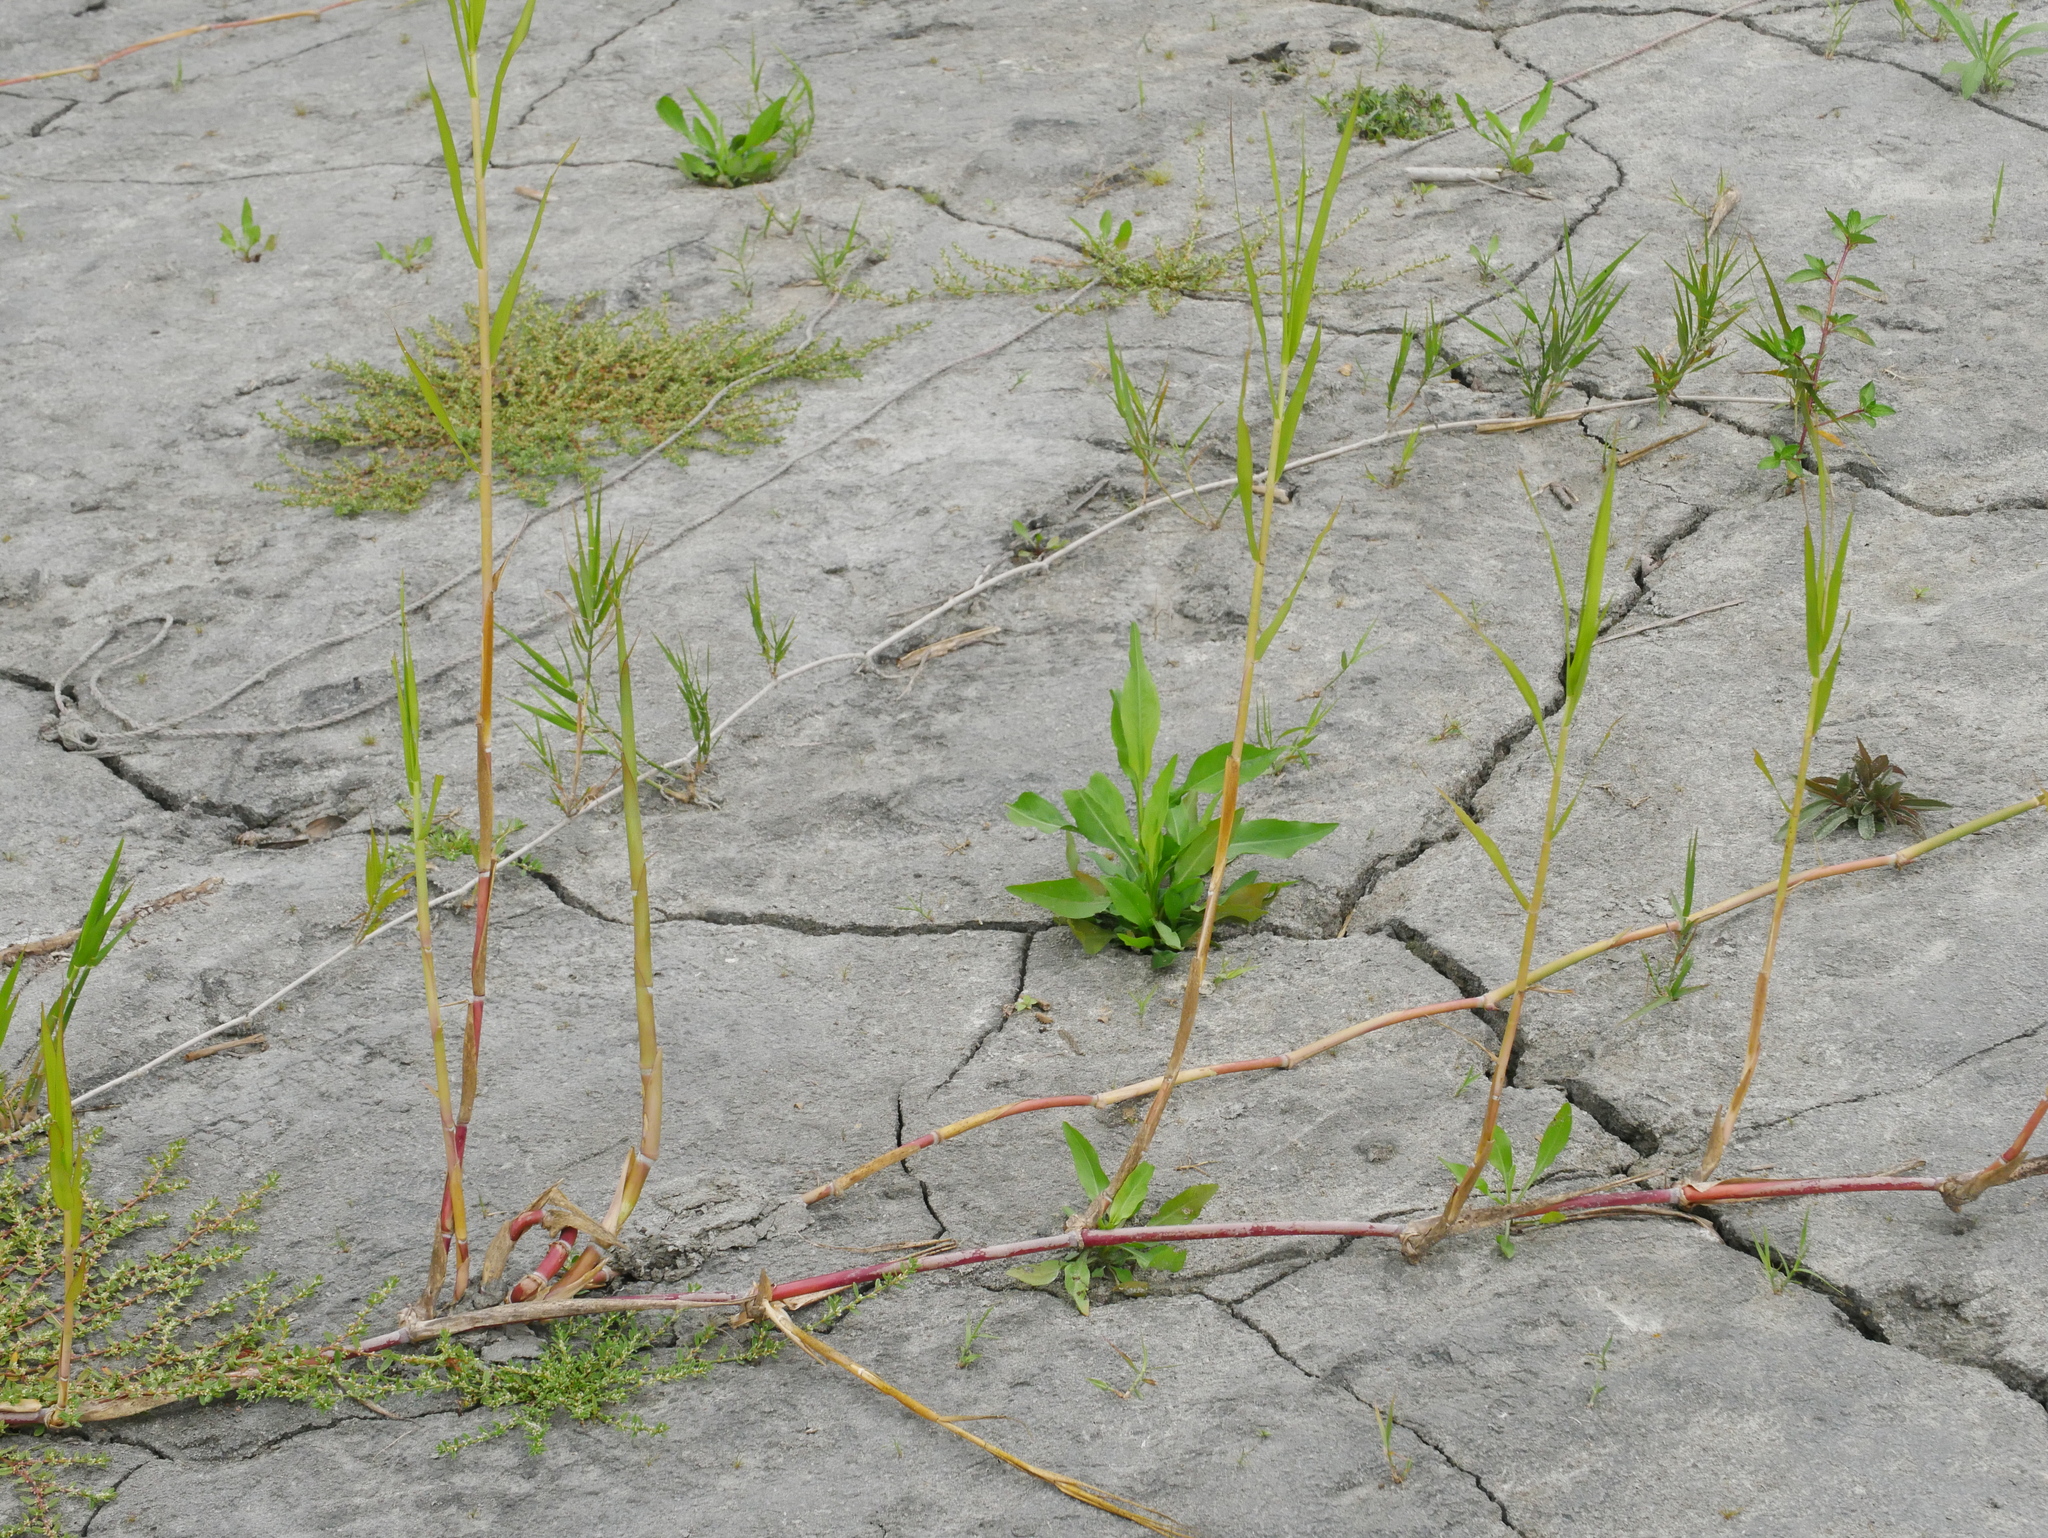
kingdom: Plantae
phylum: Tracheophyta
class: Liliopsida
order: Poales
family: Poaceae
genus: Phragmites
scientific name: Phragmites karka
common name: Tropical reed
